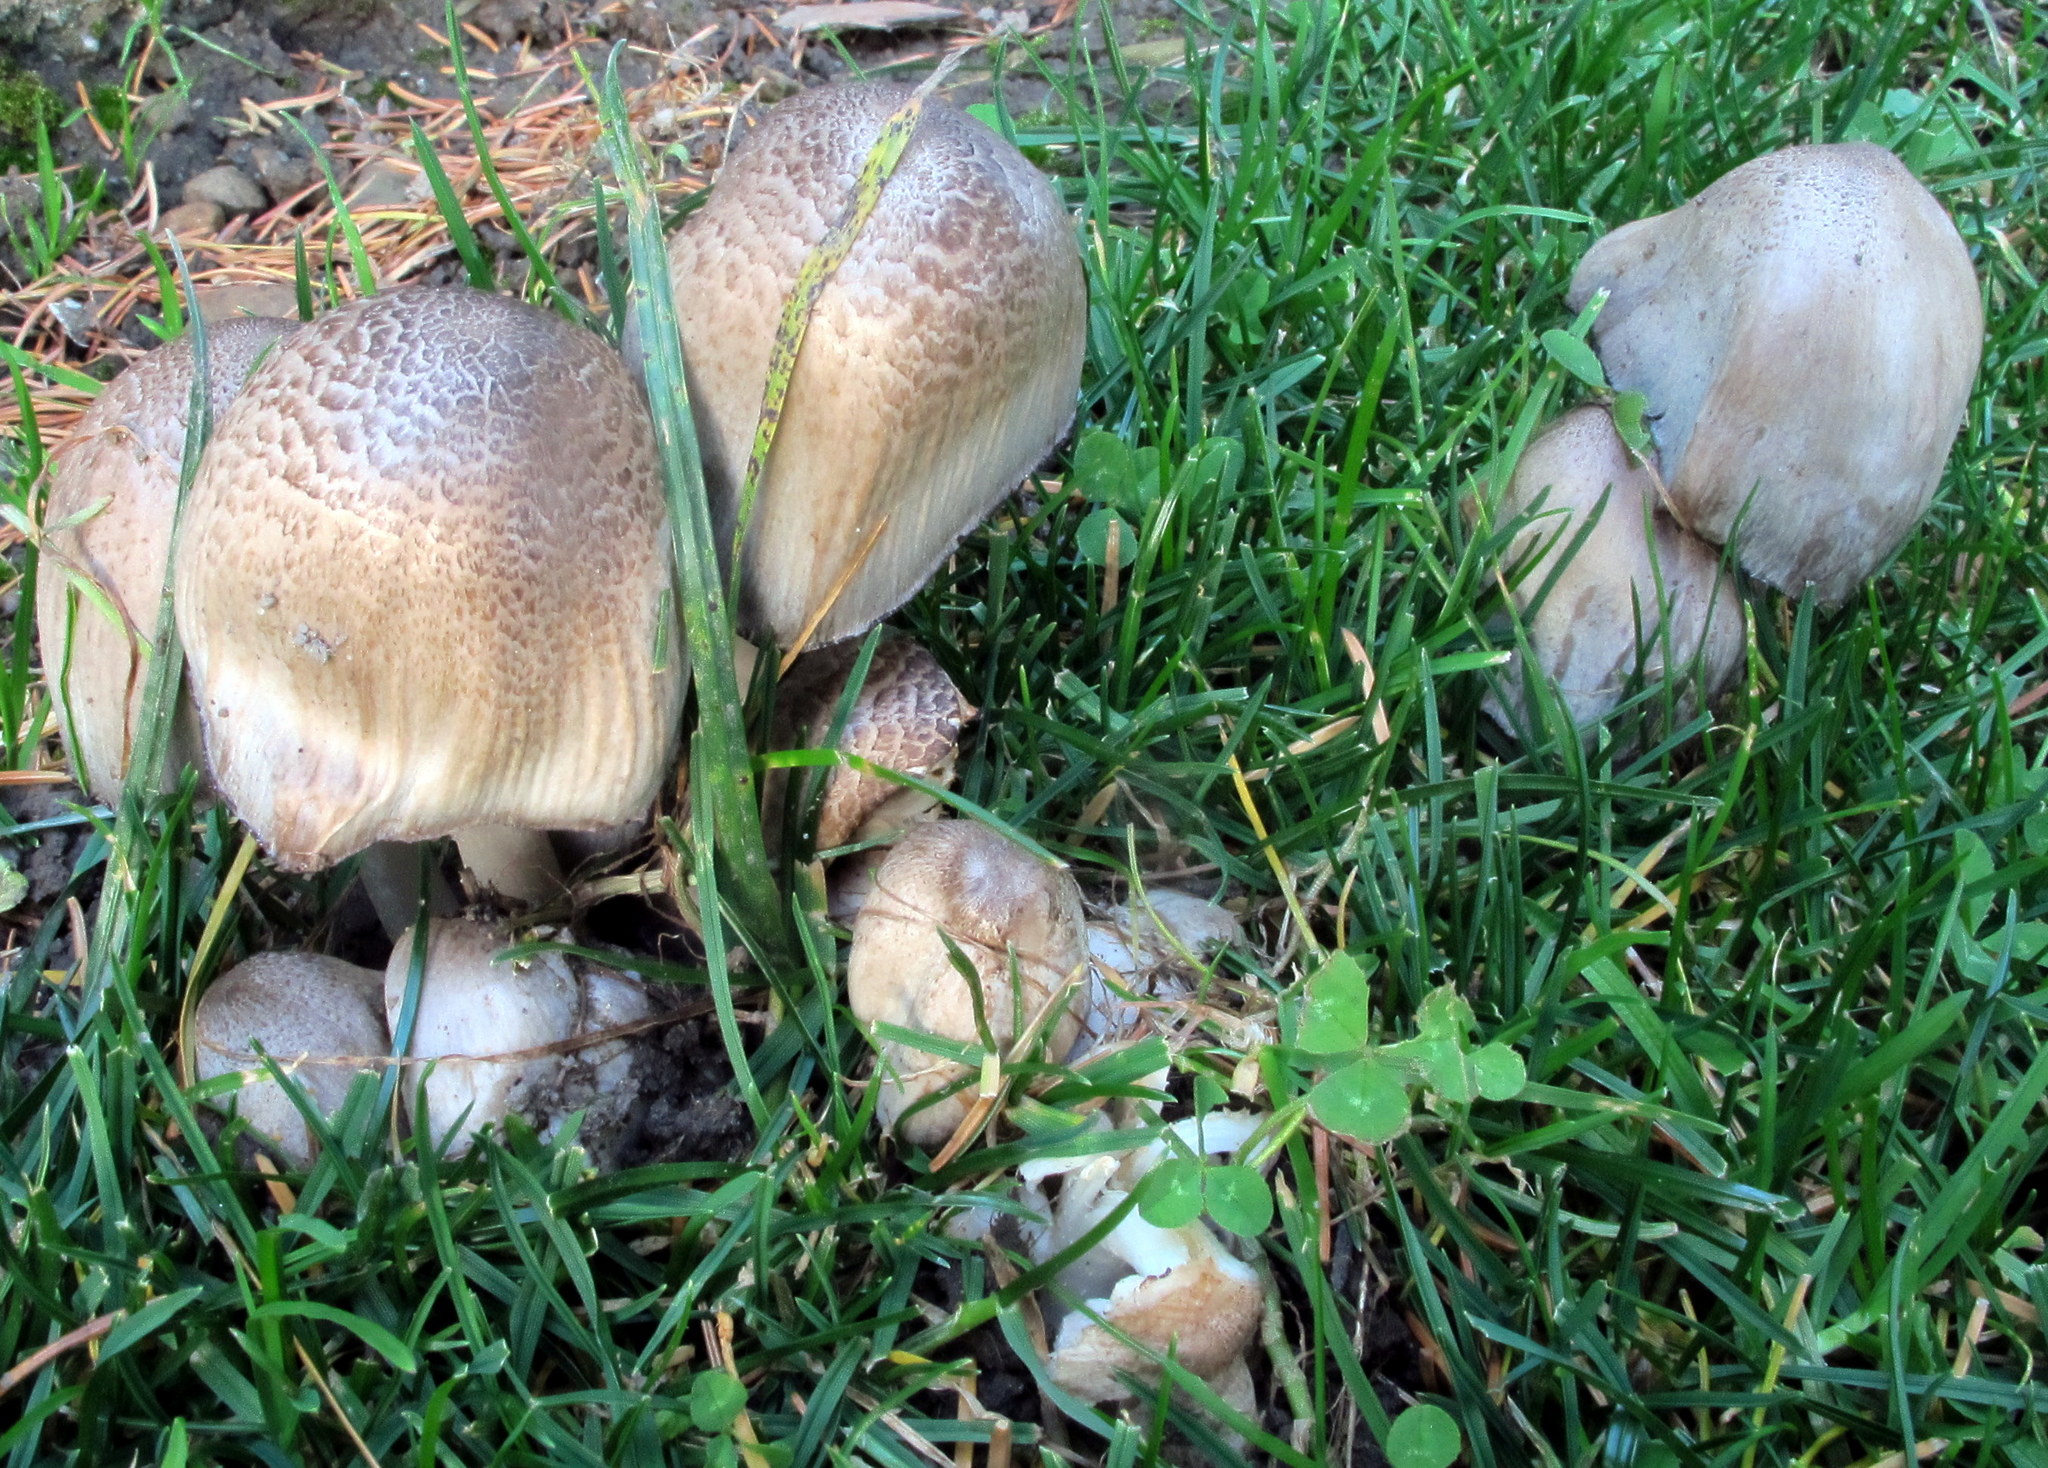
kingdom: Fungi
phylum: Basidiomycota
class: Agaricomycetes
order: Agaricales
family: Psathyrellaceae
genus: Coprinopsis
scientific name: Coprinopsis romagnesiana
